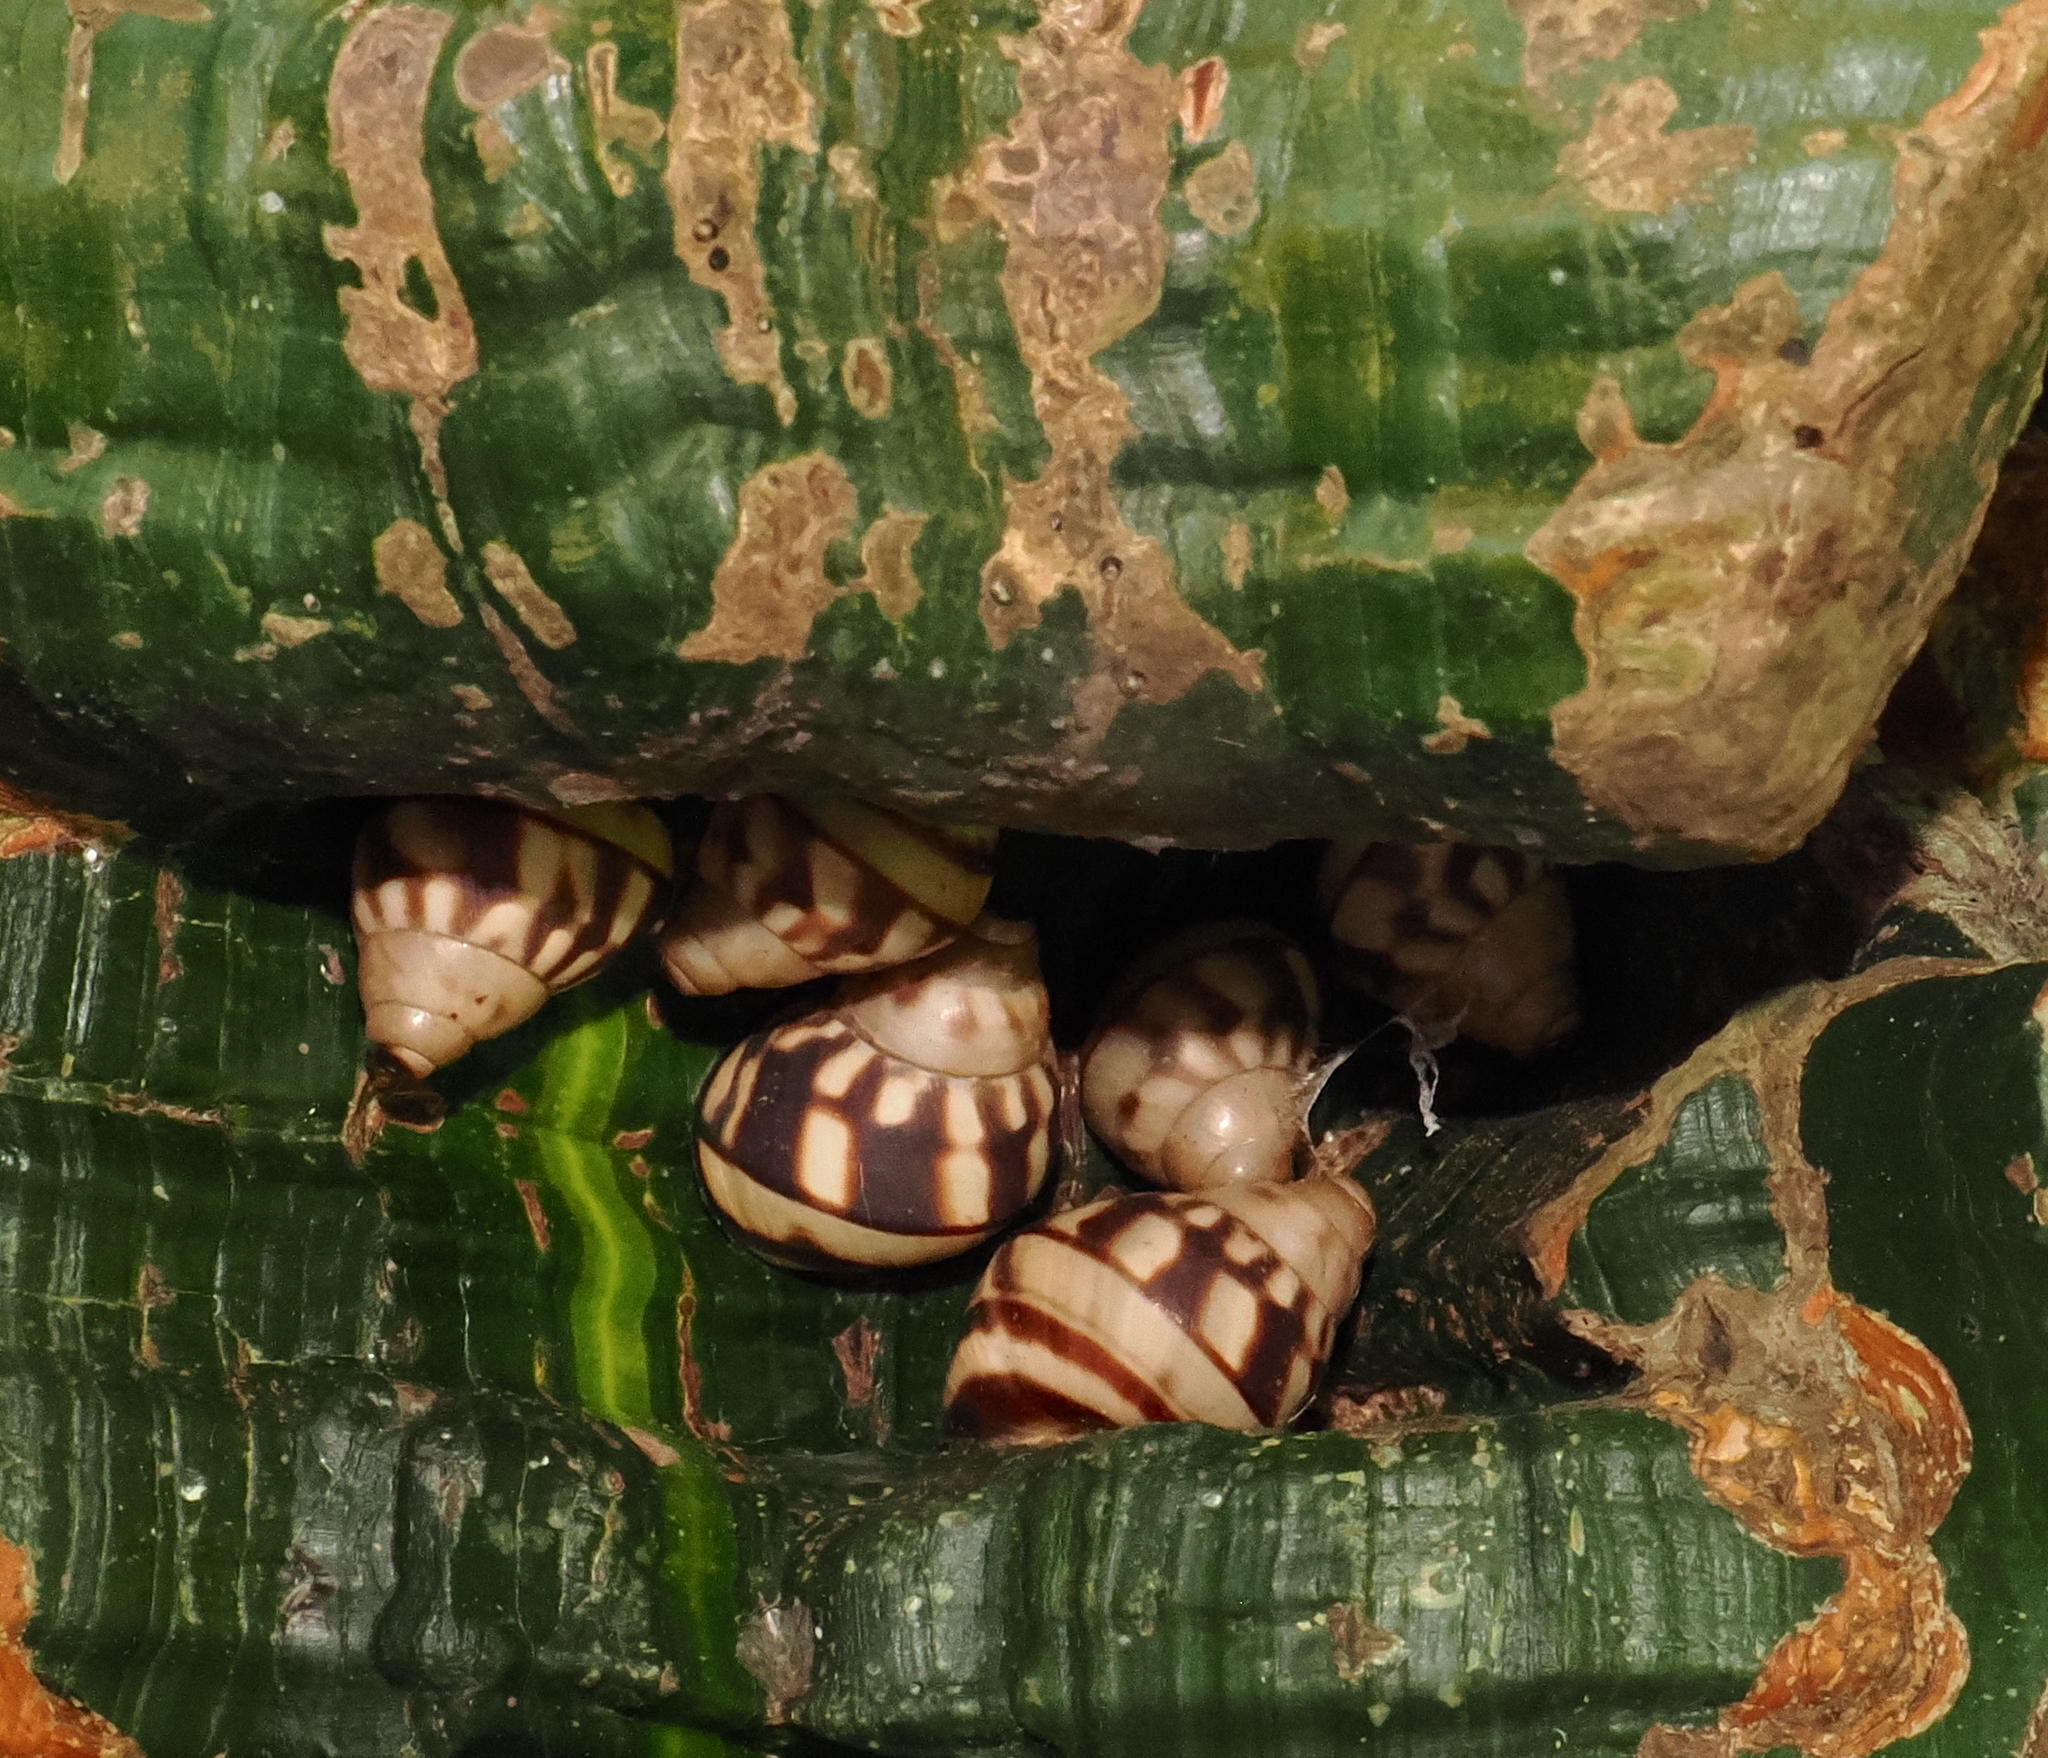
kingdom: Animalia
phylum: Mollusca
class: Gastropoda
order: Stylommatophora
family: Orthalicidae
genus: Orthalicus
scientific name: Orthalicus
